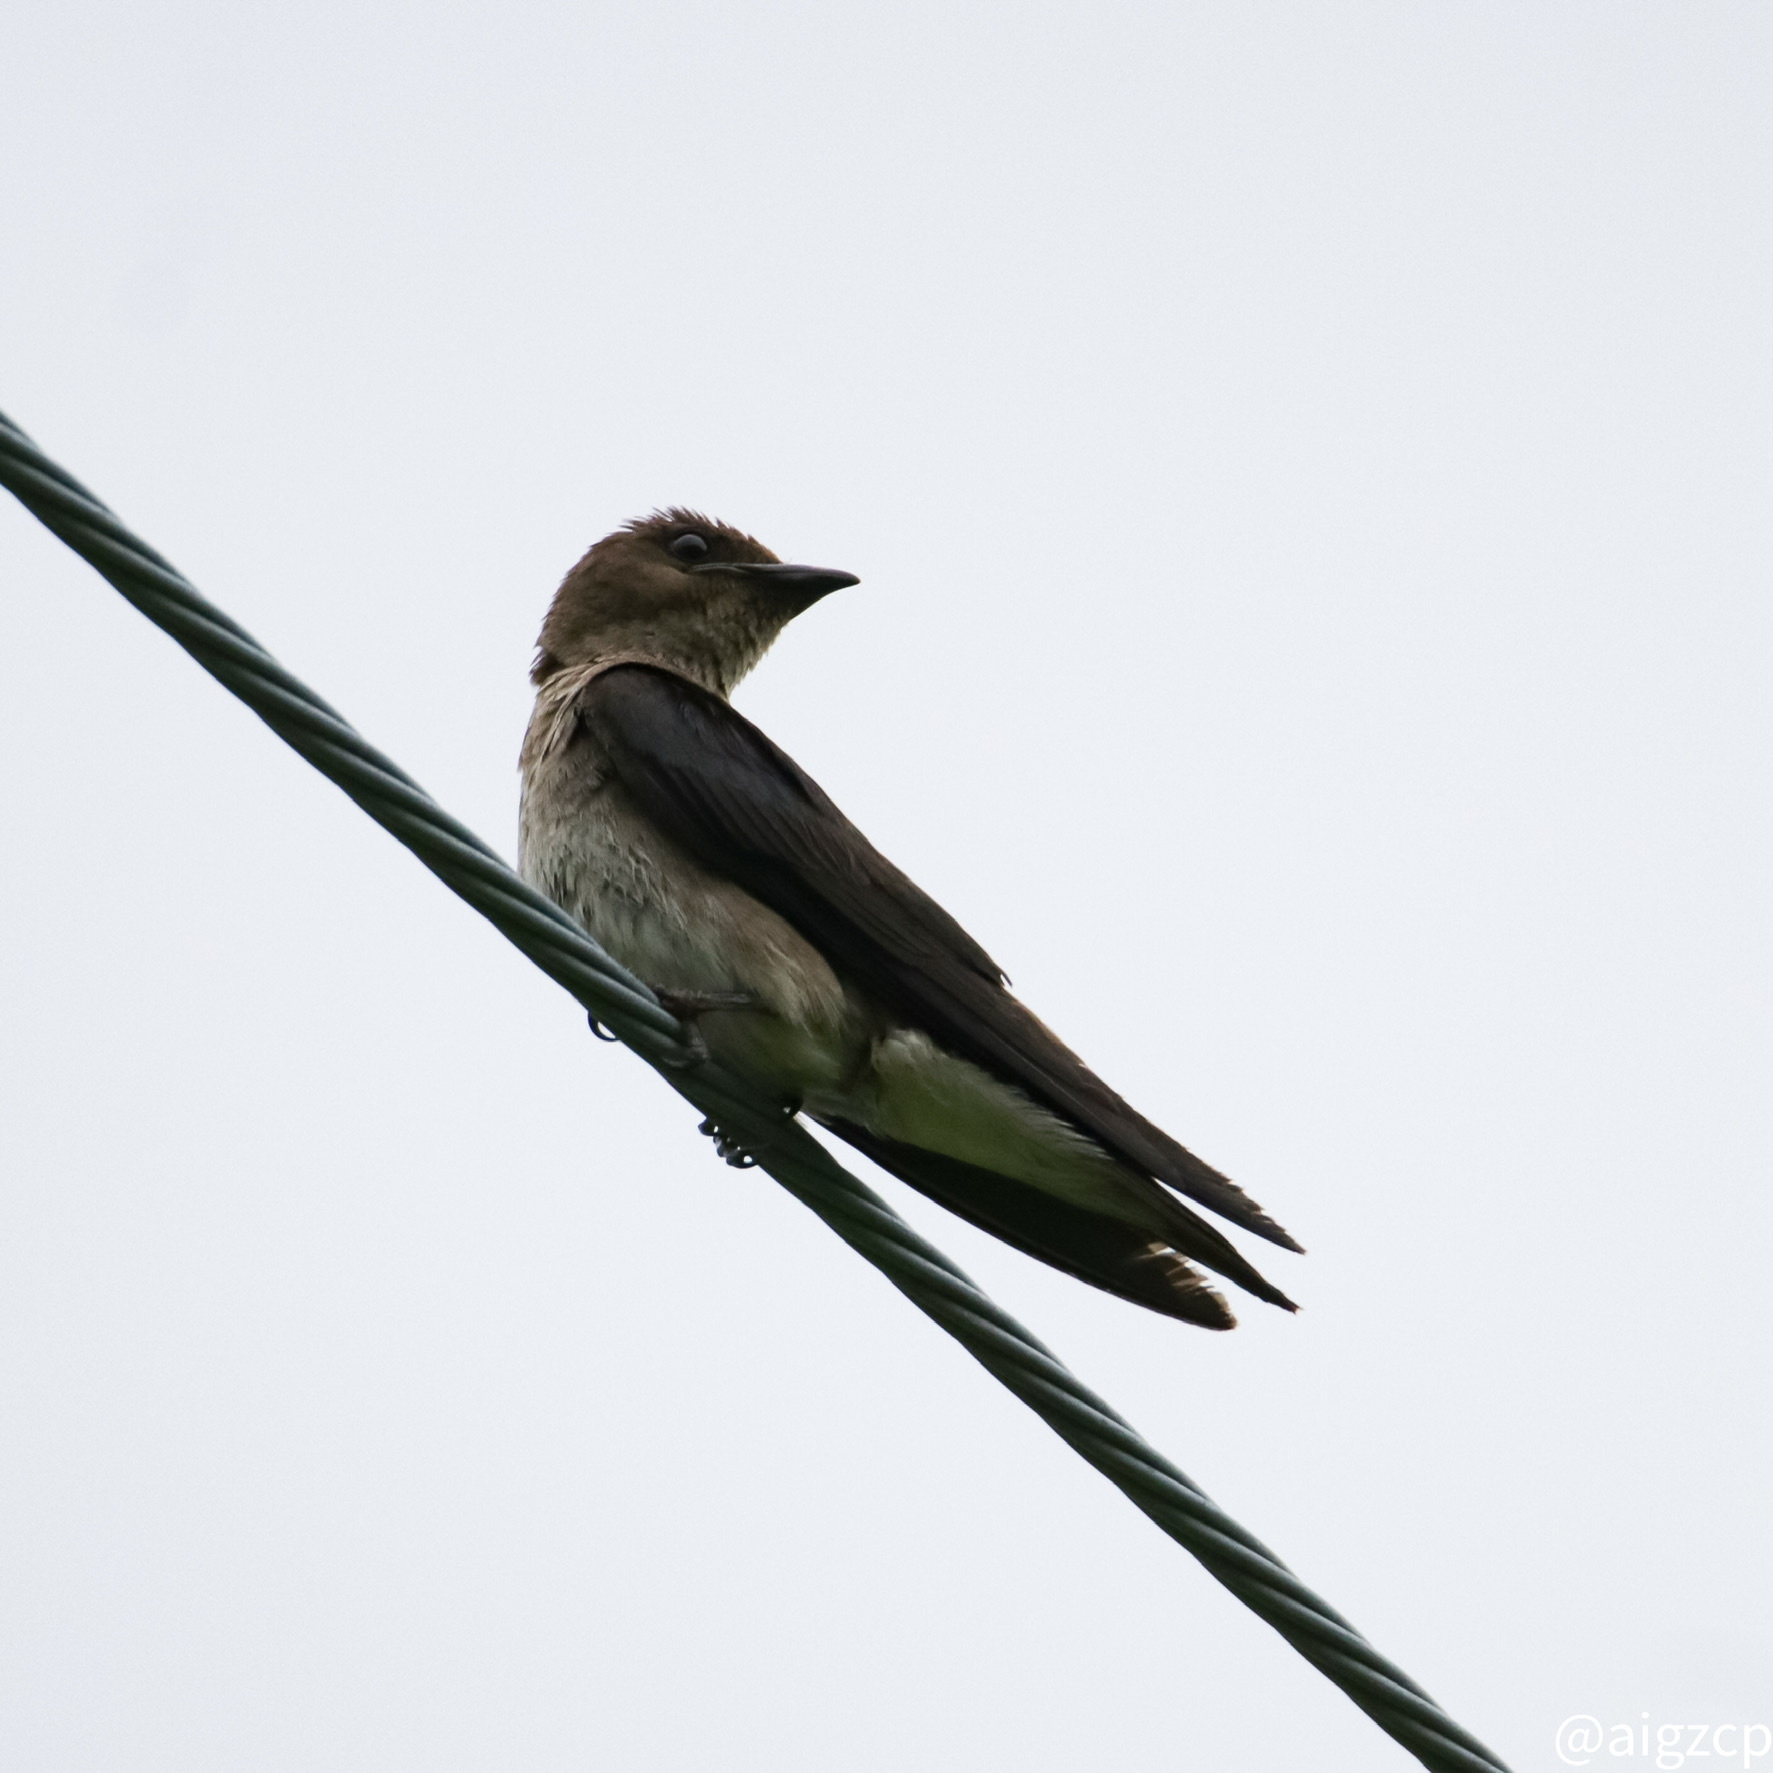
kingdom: Animalia
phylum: Chordata
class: Aves
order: Passeriformes
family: Hirundinidae
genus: Progne
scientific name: Progne chalybea
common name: Grey-breasted martin
